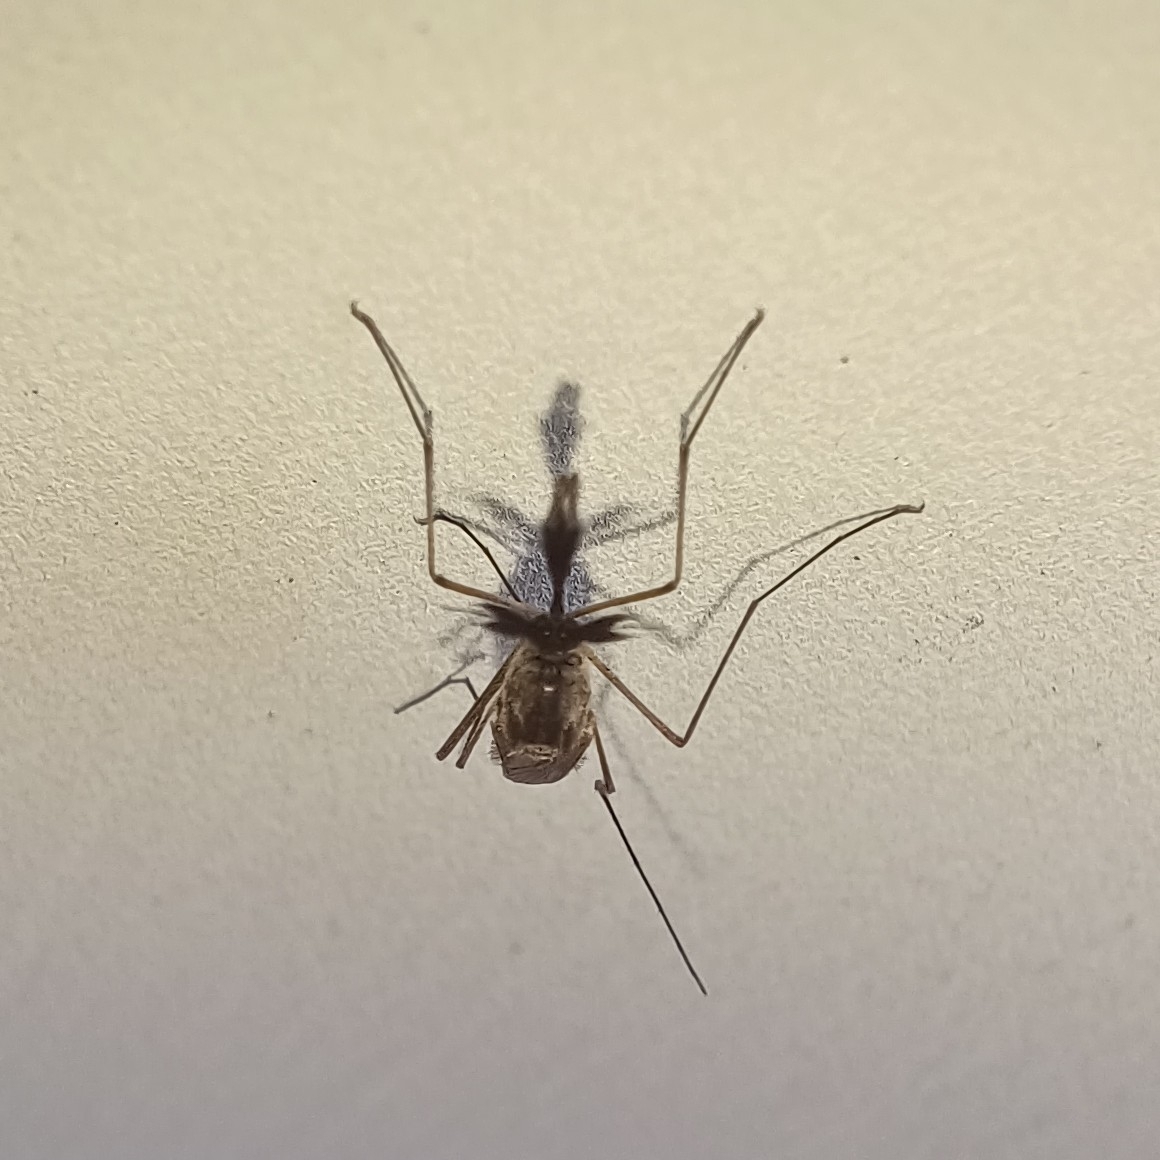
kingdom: Animalia
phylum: Arthropoda
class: Insecta
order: Diptera
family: Culicidae
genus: Aedes
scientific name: Aedes vexans
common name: Inland floodwater mosquito
